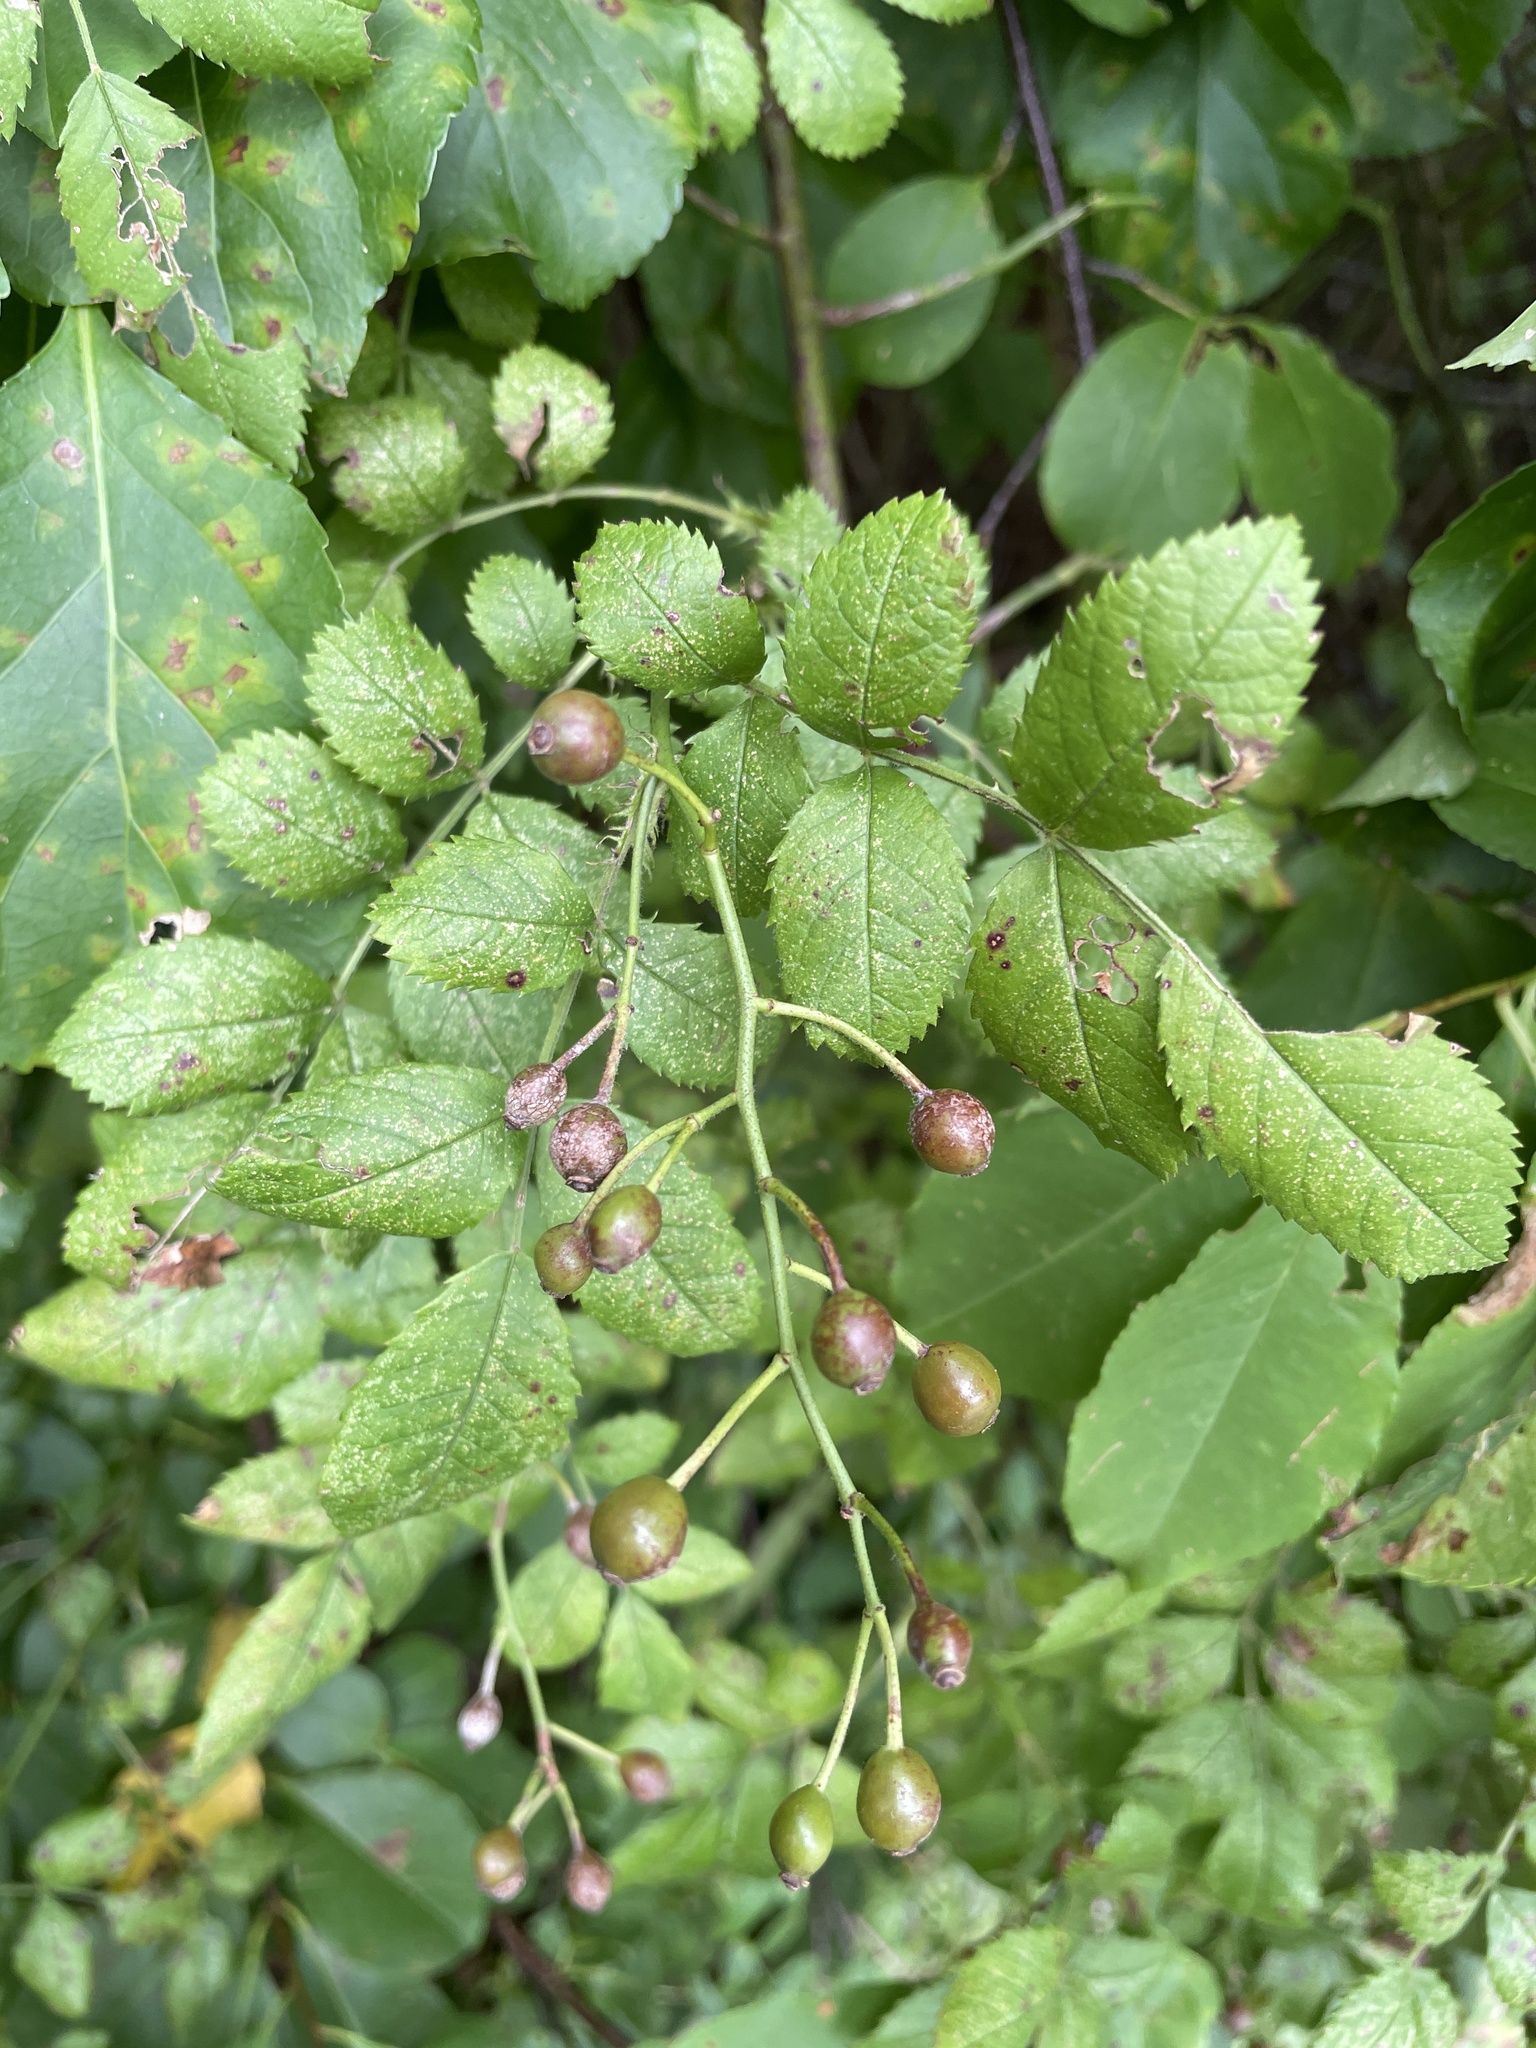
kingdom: Plantae
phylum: Tracheophyta
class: Magnoliopsida
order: Rosales
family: Rosaceae
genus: Rosa
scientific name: Rosa multiflora
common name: Multiflora rose
